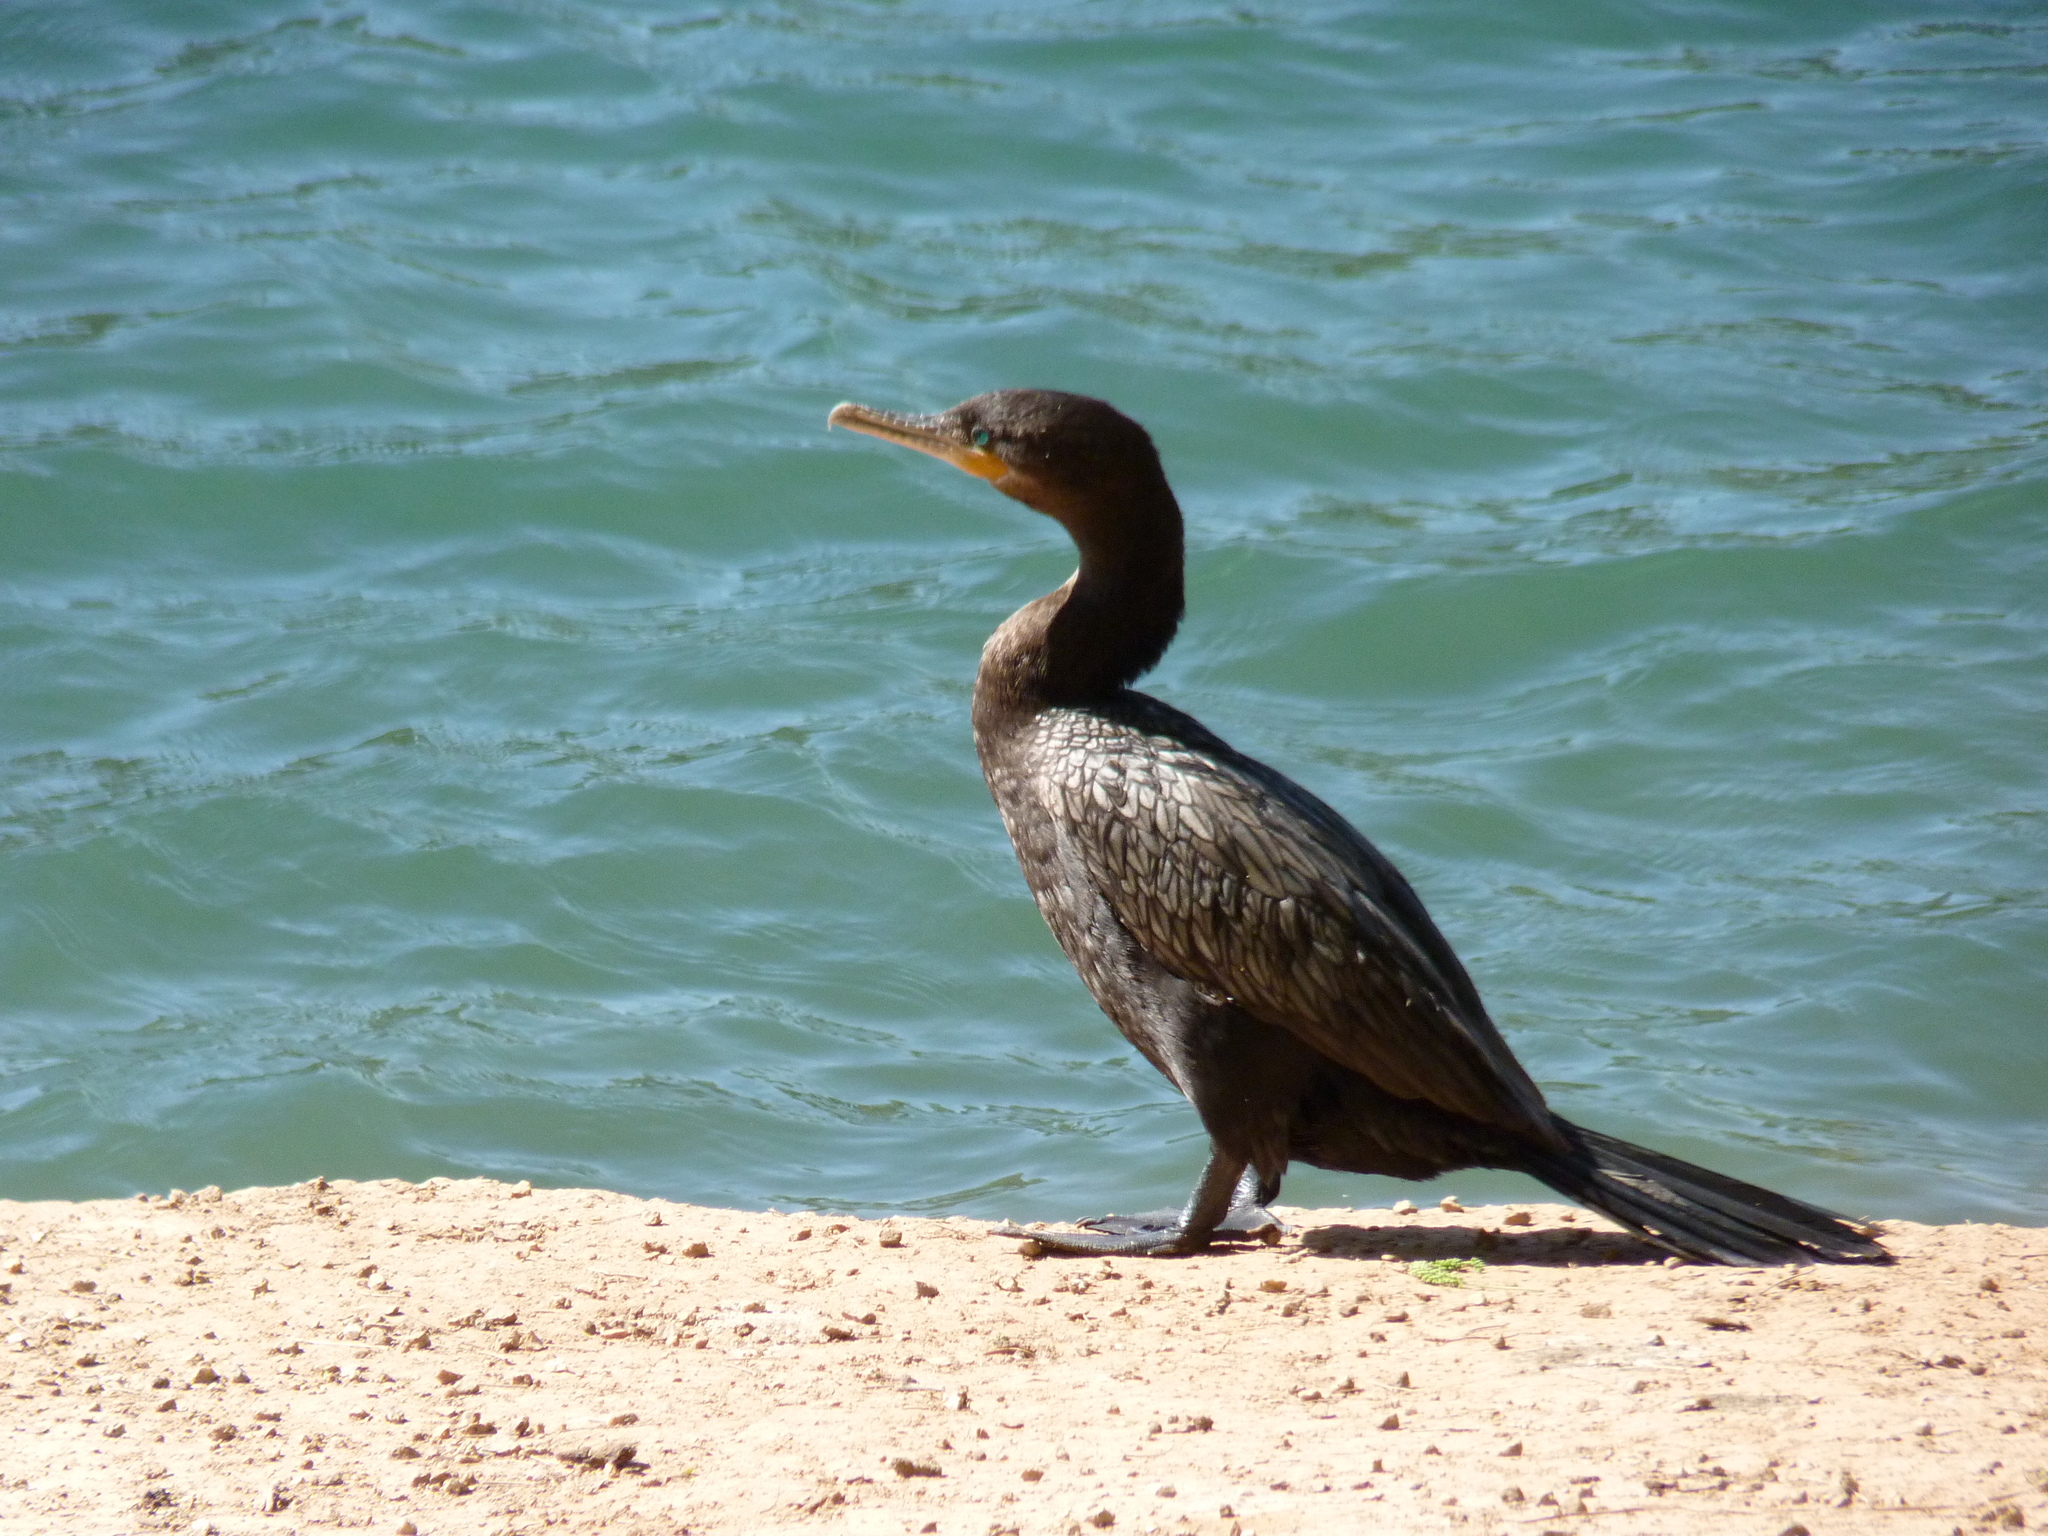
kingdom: Animalia
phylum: Chordata
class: Aves
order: Suliformes
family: Phalacrocoracidae
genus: Phalacrocorax
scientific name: Phalacrocorax brasilianus
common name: Neotropic cormorant
